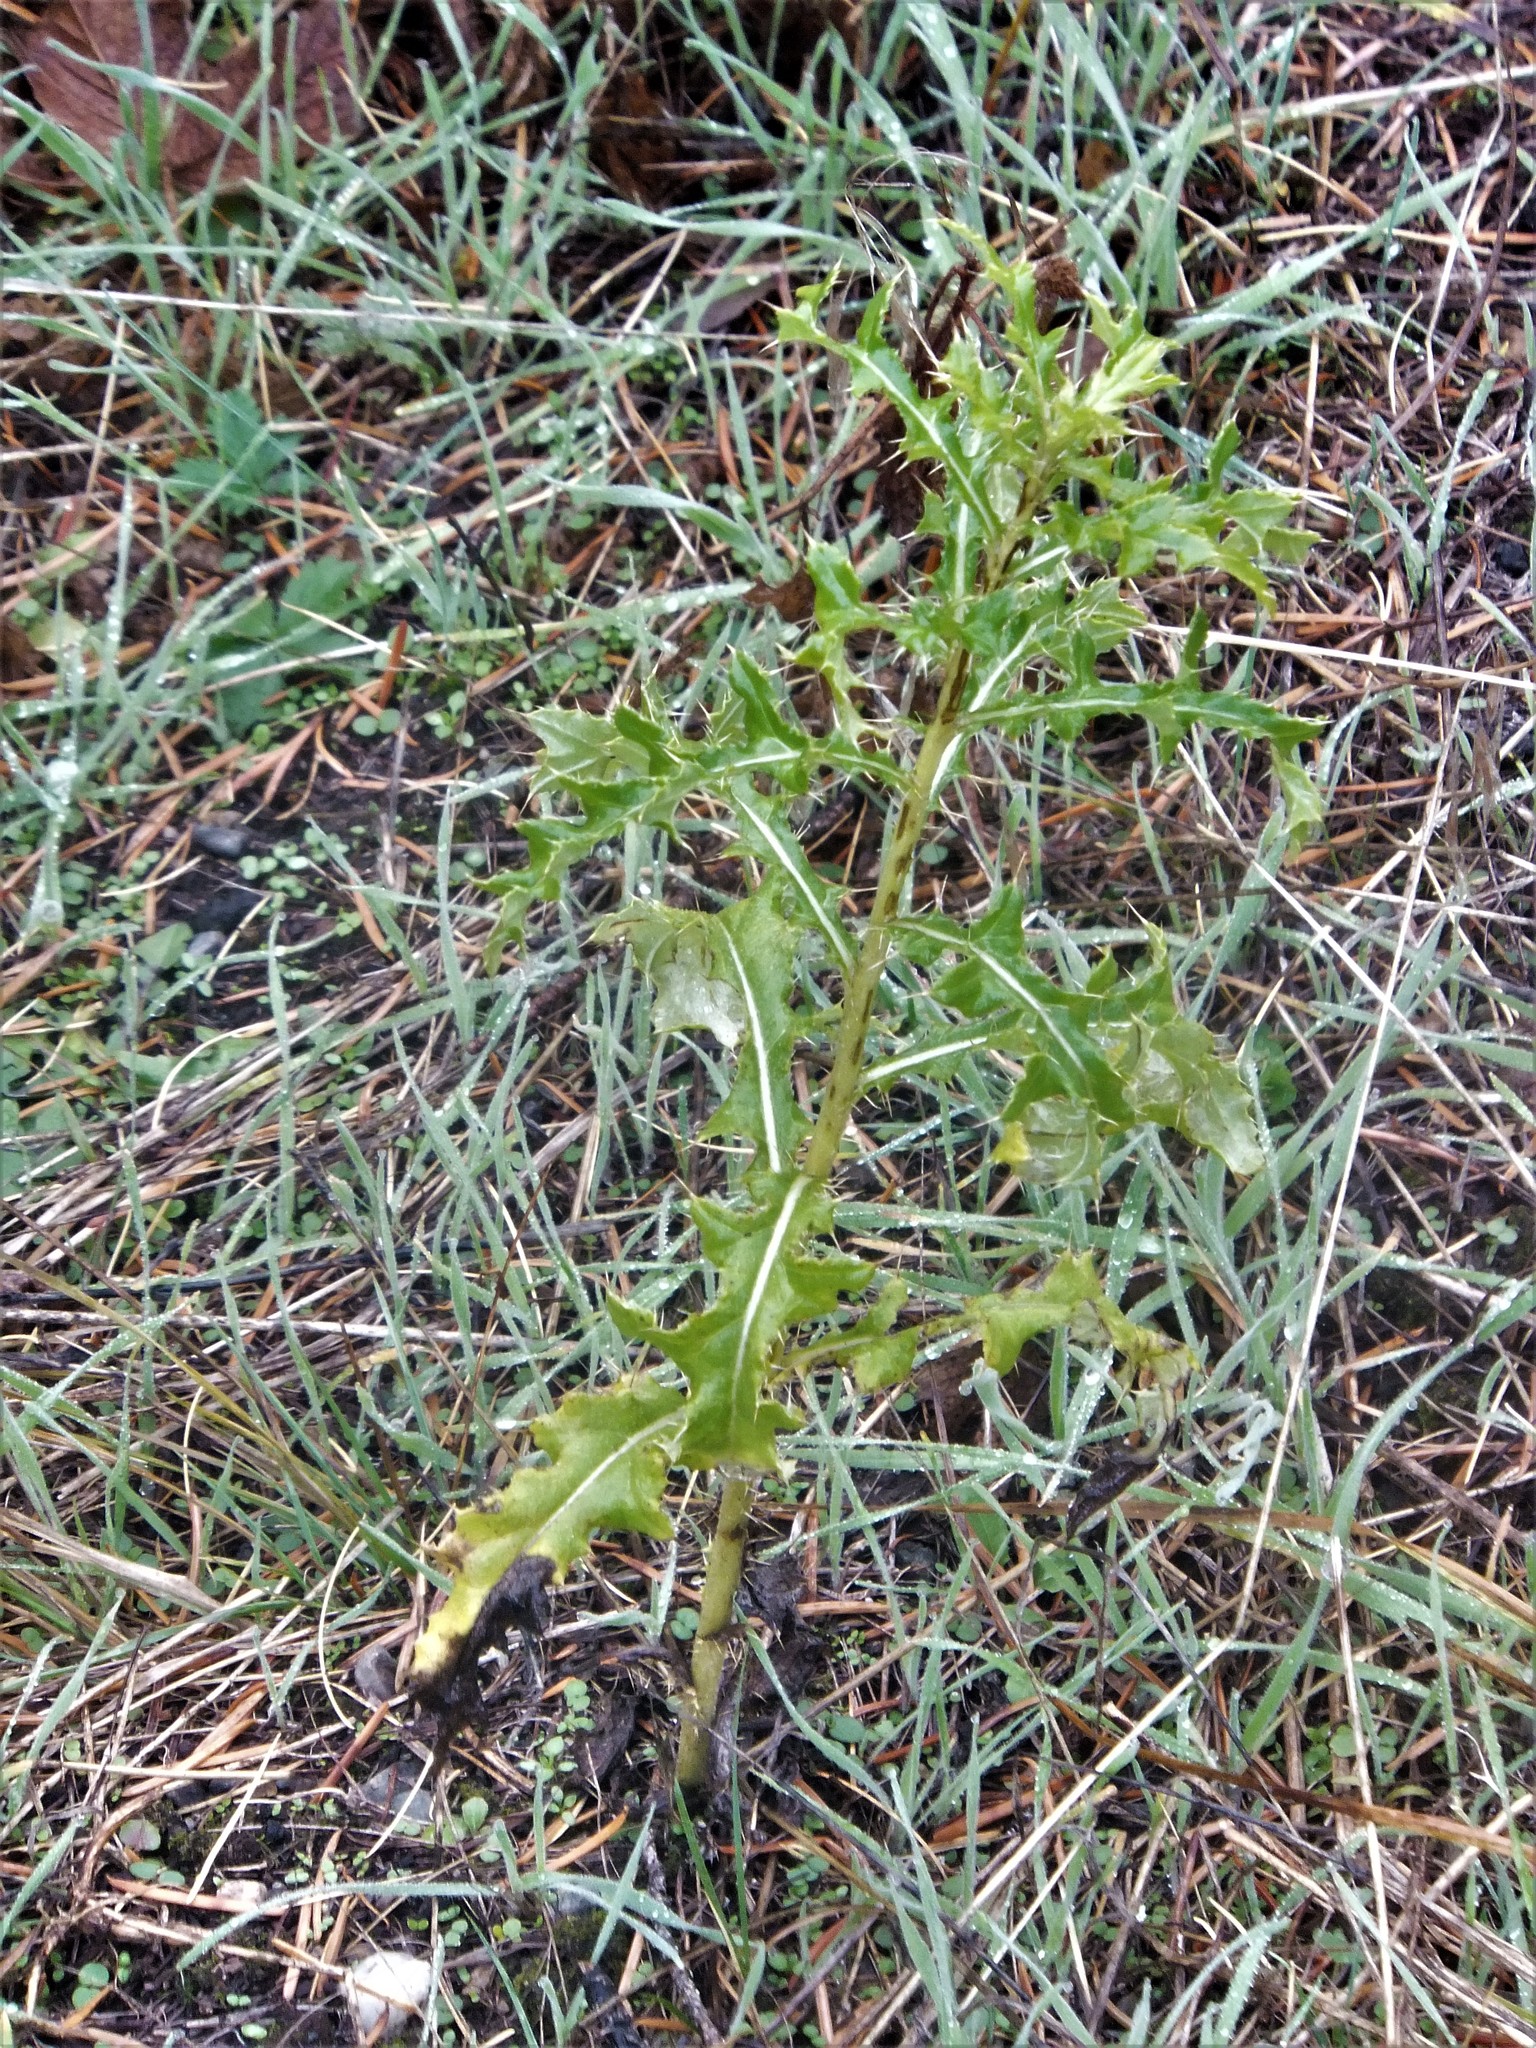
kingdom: Plantae
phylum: Tracheophyta
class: Magnoliopsida
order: Asterales
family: Asteraceae
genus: Cirsium
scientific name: Cirsium arvense
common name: Creeping thistle
